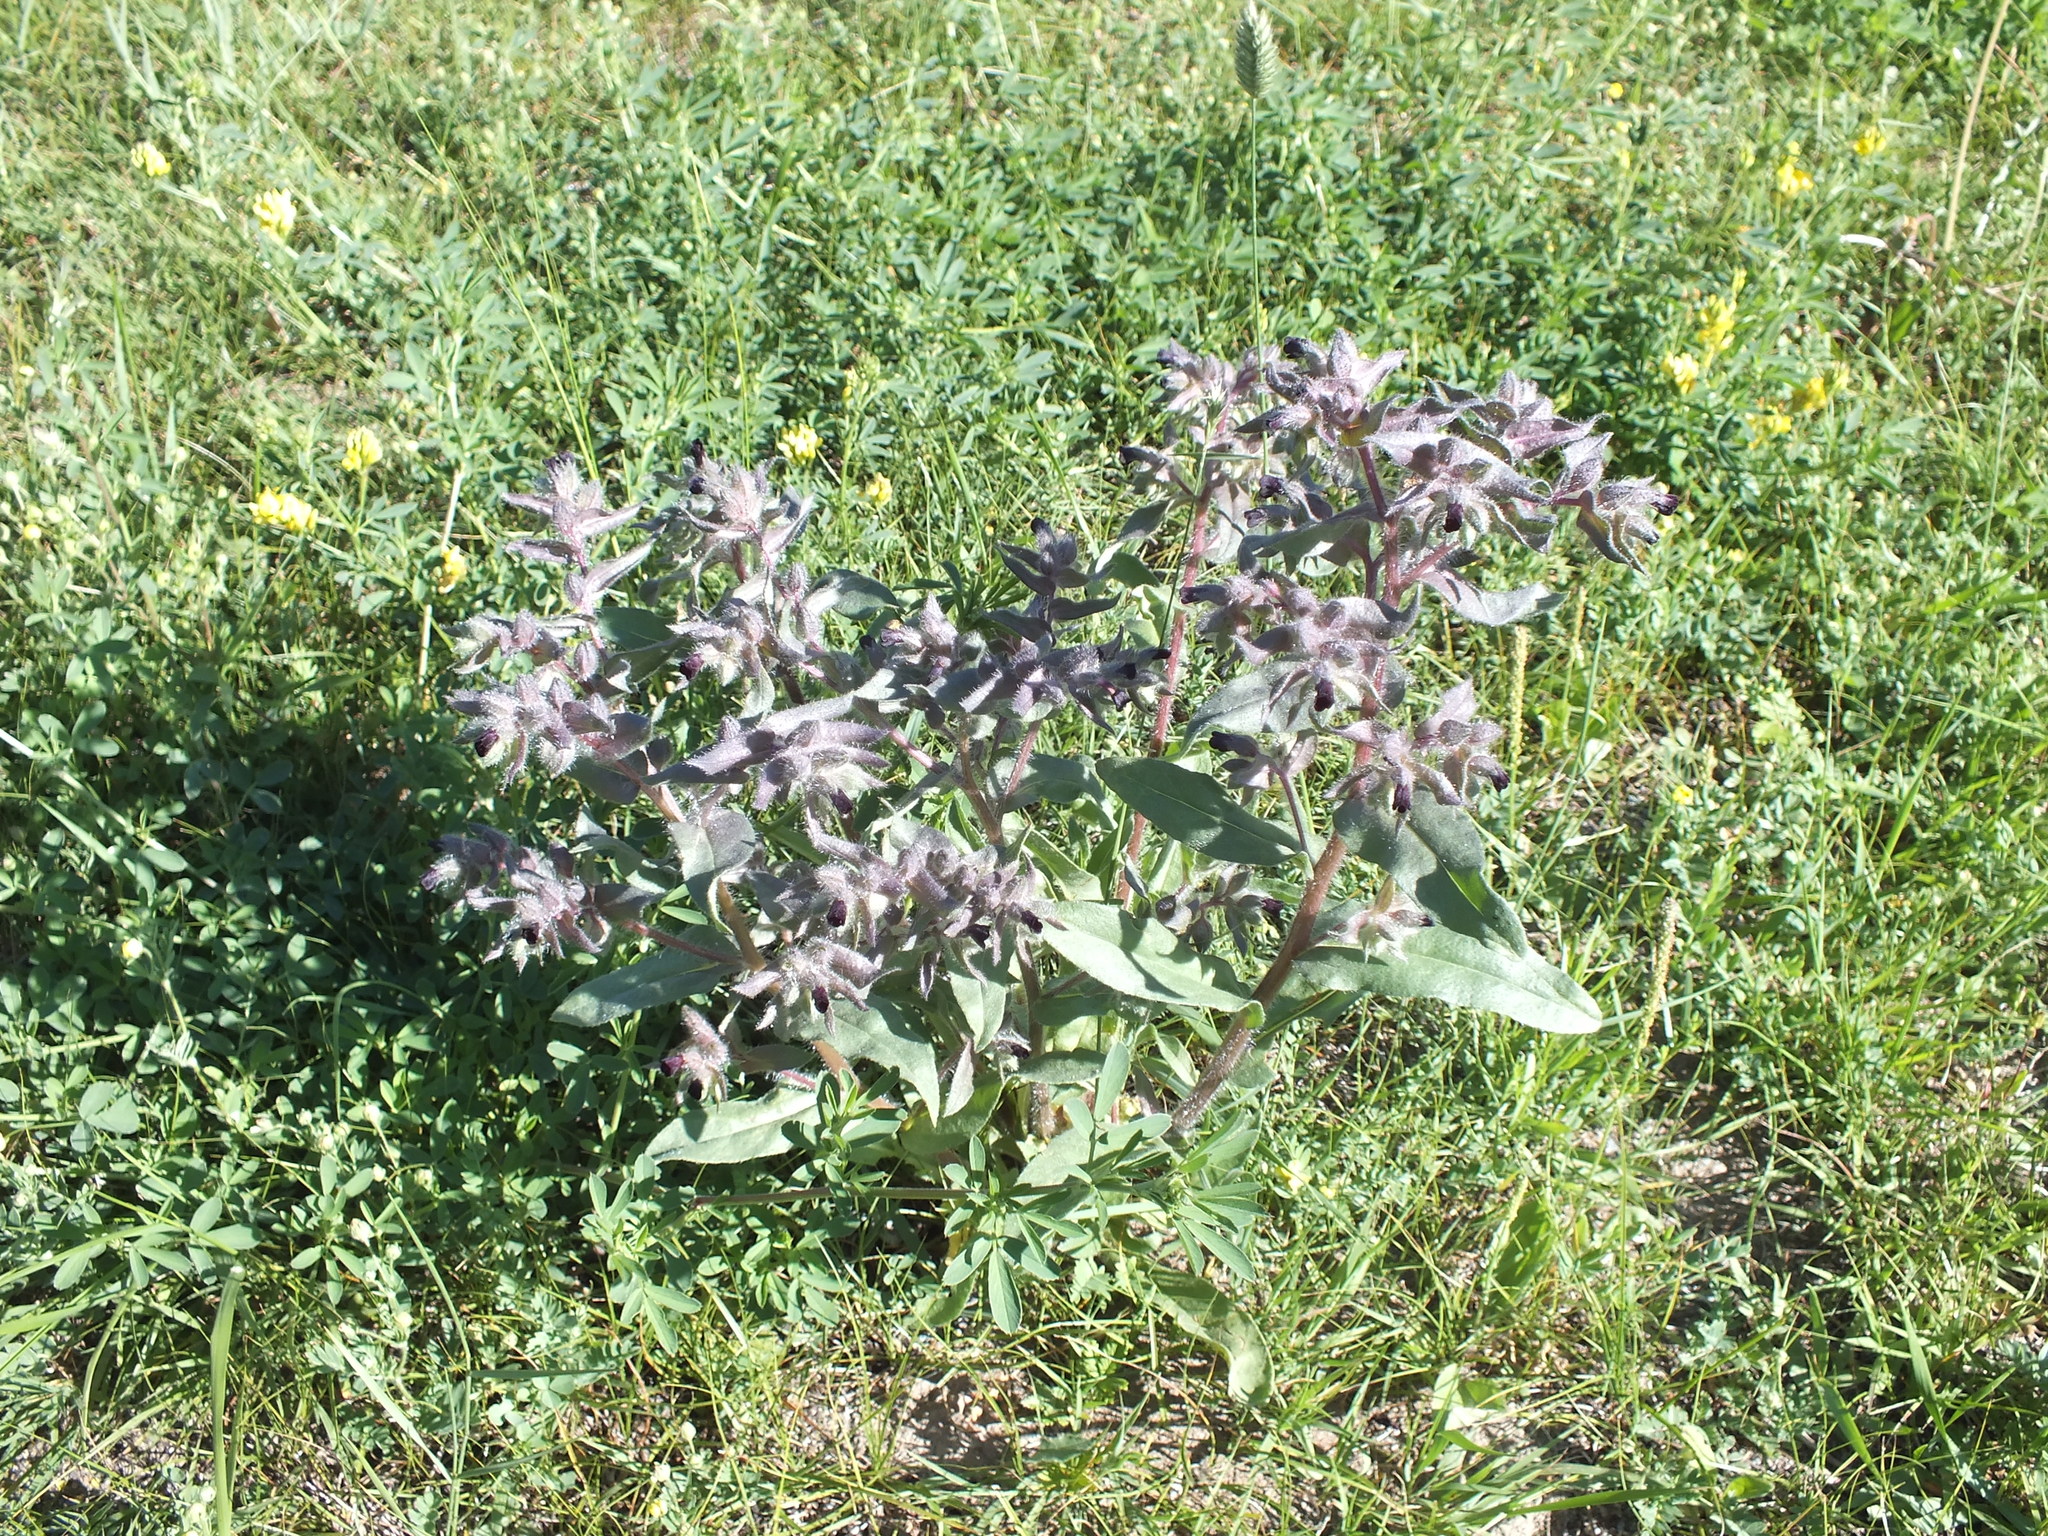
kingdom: Plantae
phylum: Tracheophyta
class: Magnoliopsida
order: Boraginales
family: Boraginaceae
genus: Nonea
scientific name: Nonea pulla
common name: Brown nonea
